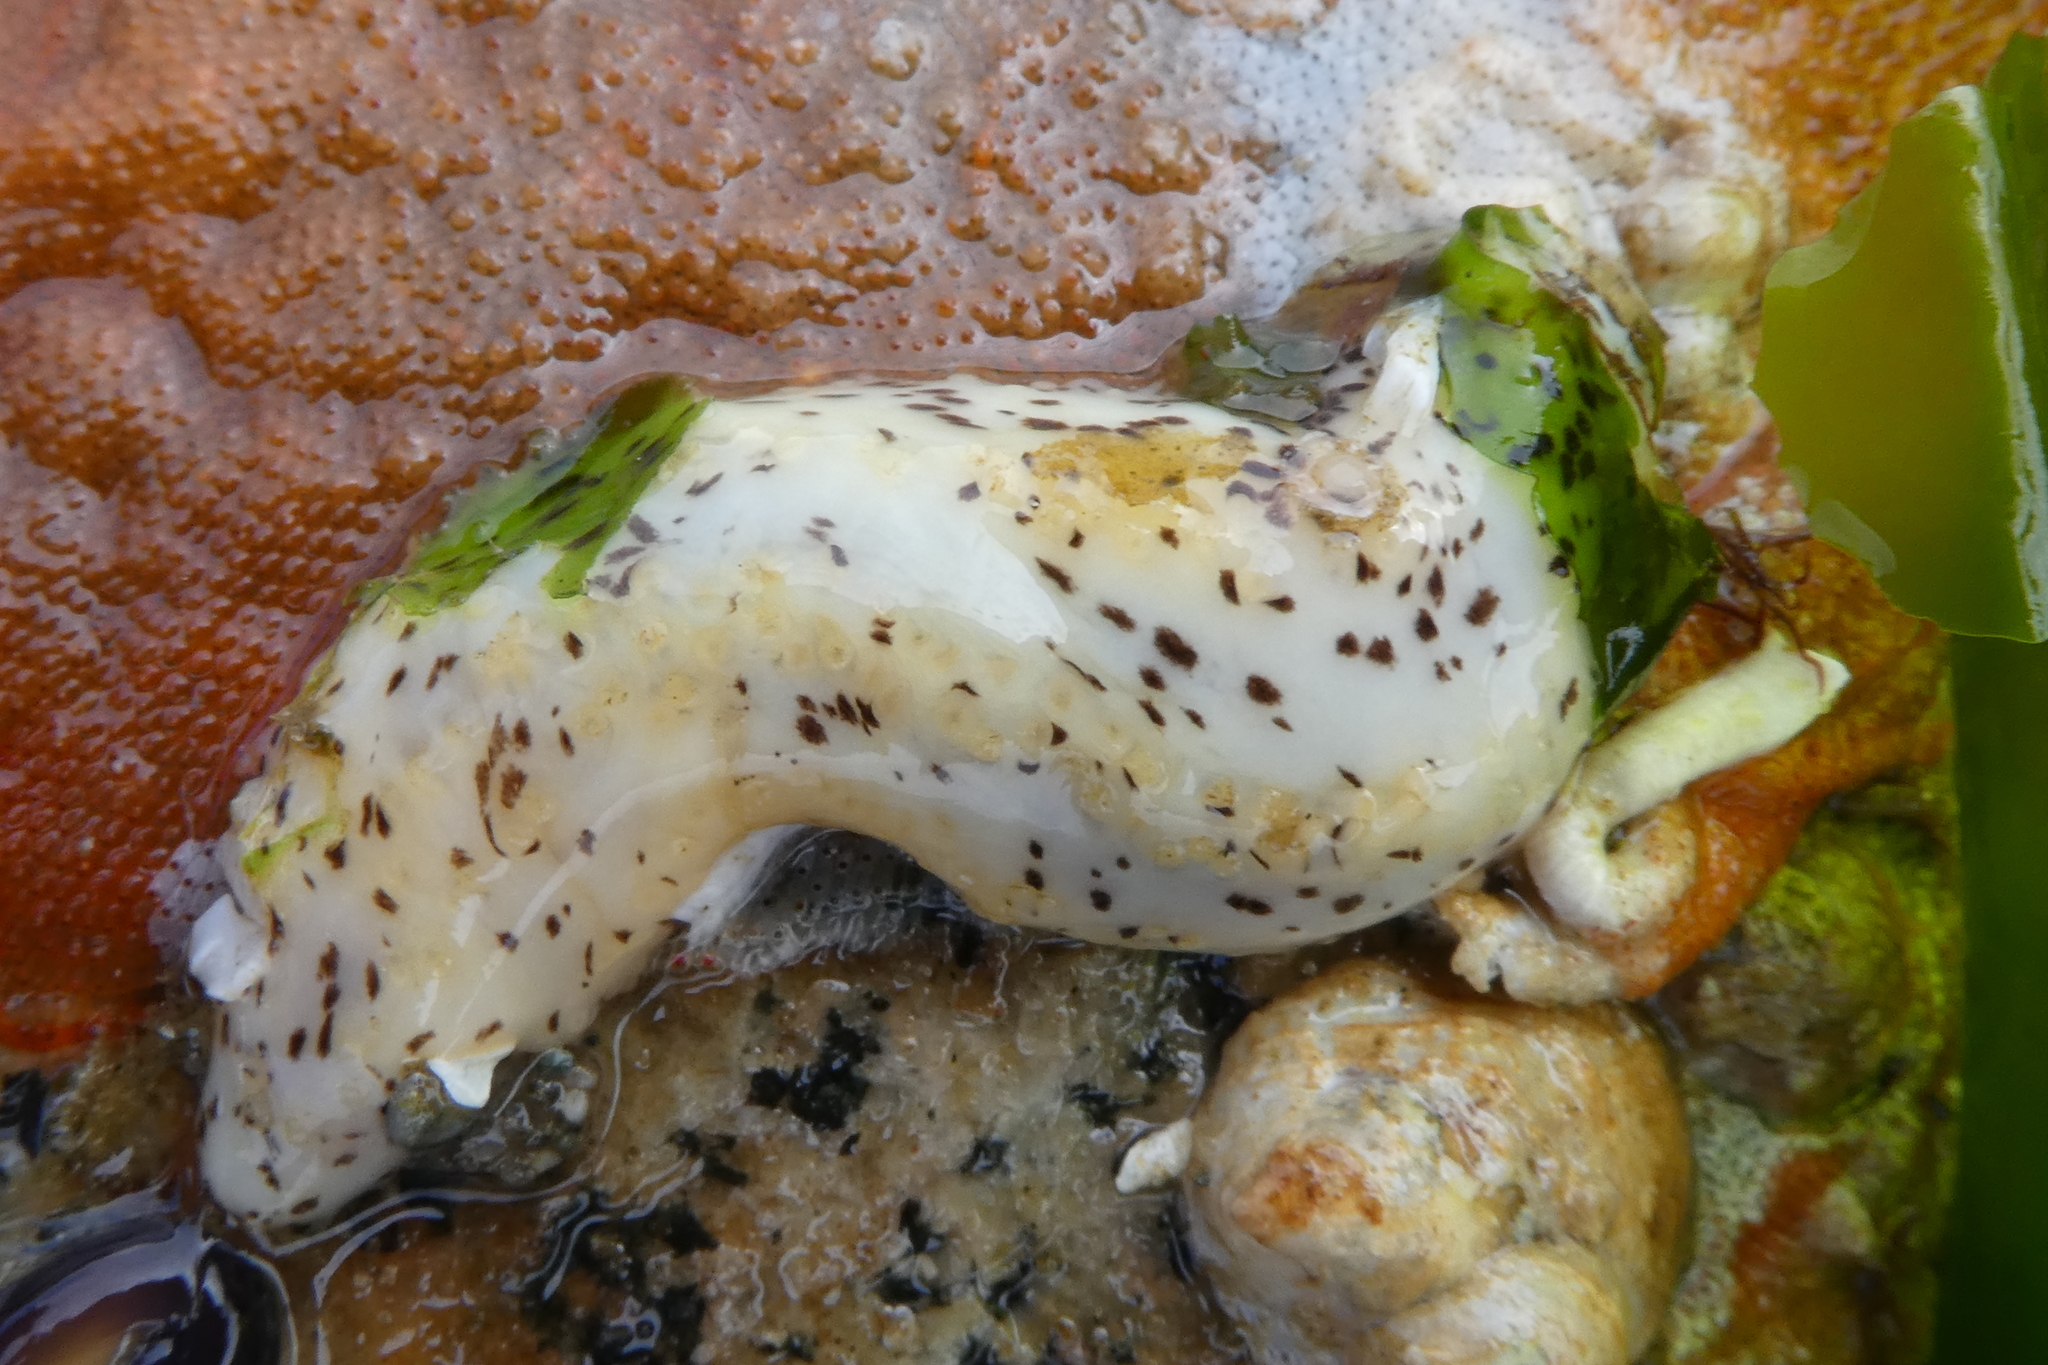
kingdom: Animalia
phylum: Echinodermata
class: Holothuroidea
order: Dendrochirotida
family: Cucumariidae
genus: Cucumaria
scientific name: Cucumaria piperata
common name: Peppered sea cucumber
